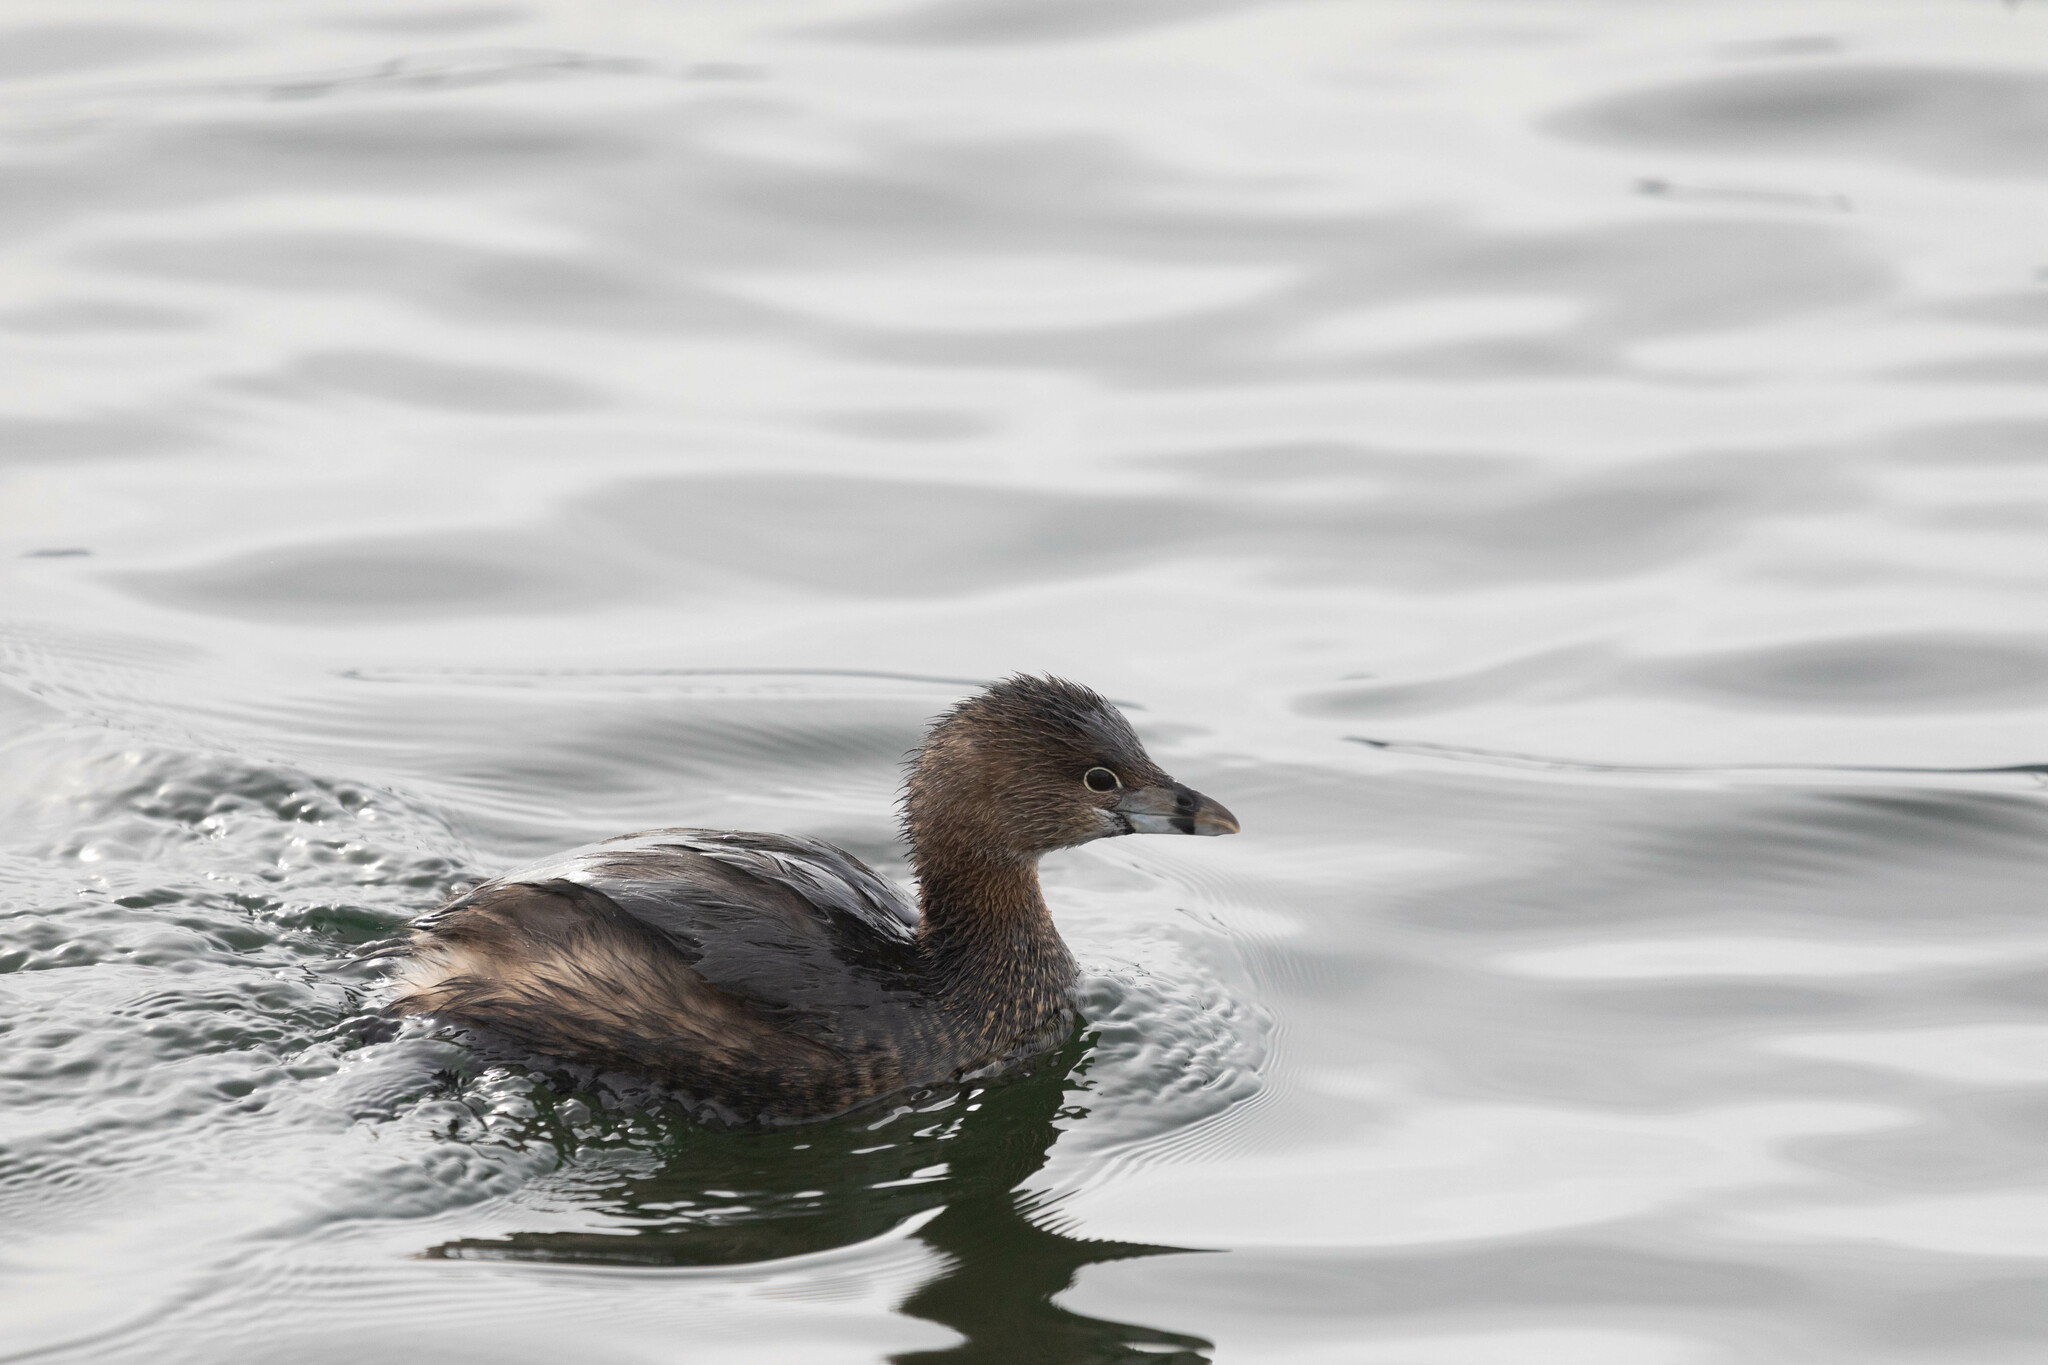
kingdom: Animalia
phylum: Chordata
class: Aves
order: Podicipediformes
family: Podicipedidae
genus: Podilymbus
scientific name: Podilymbus podiceps
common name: Pied-billed grebe
